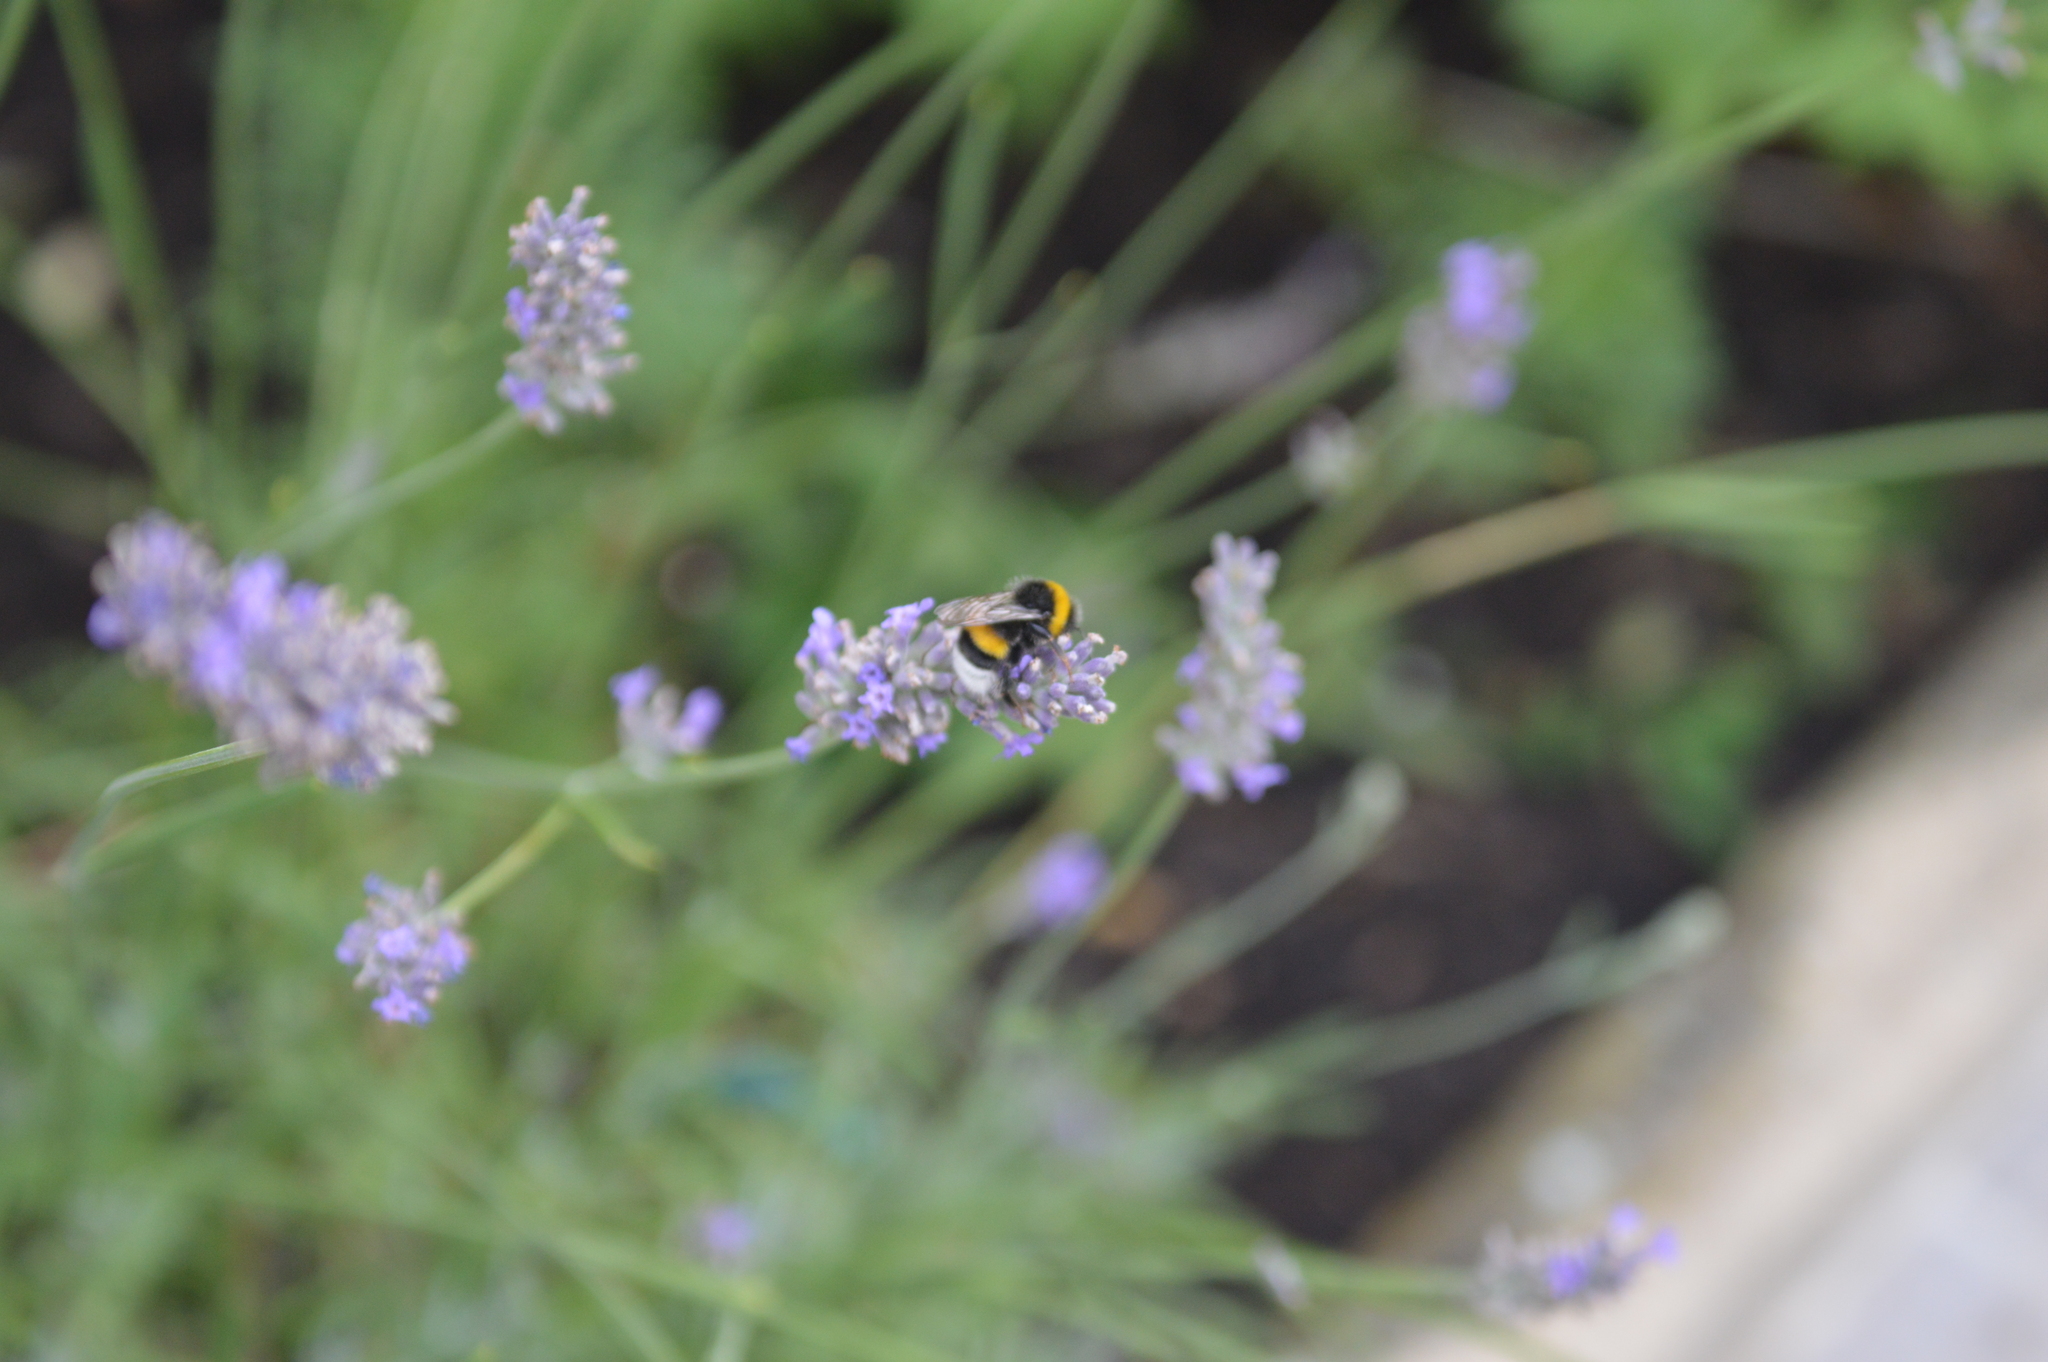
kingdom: Animalia
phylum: Arthropoda
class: Insecta
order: Hymenoptera
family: Apidae
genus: Bombus
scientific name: Bombus
